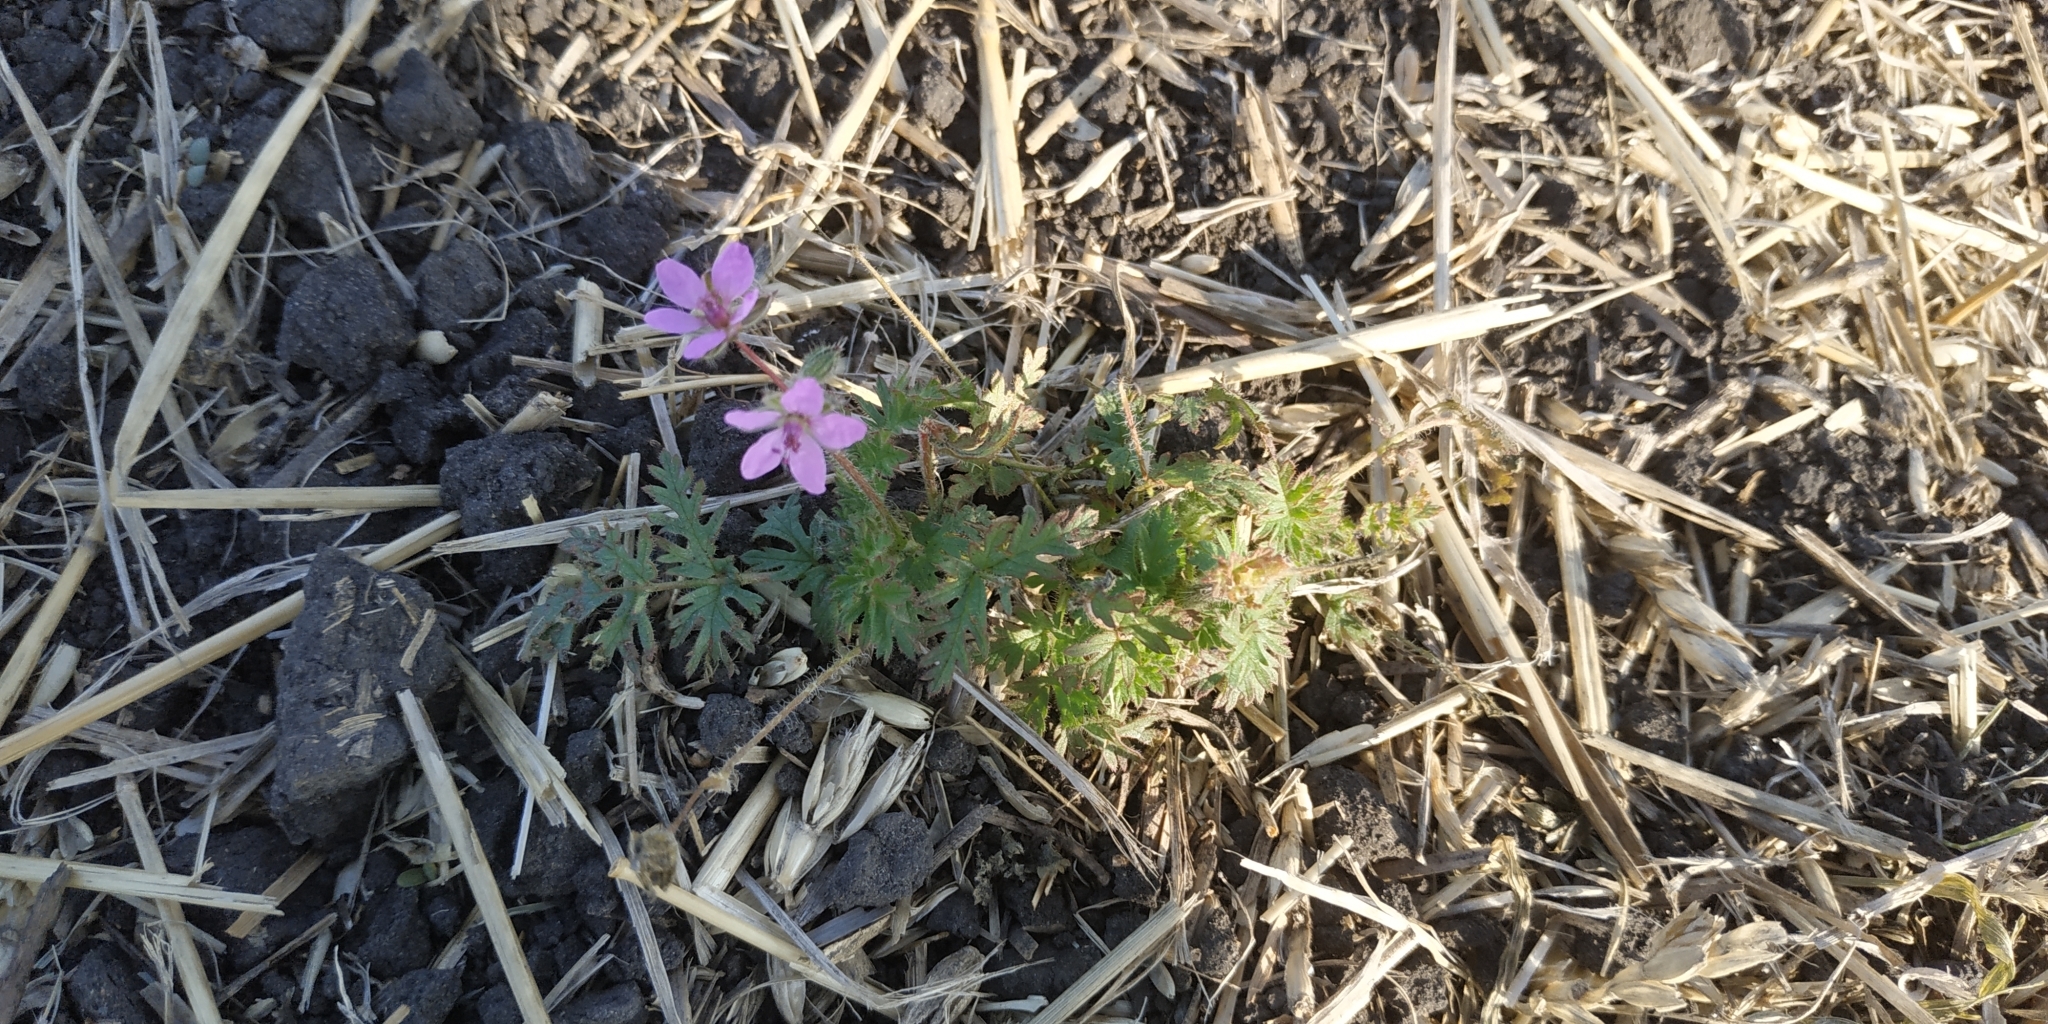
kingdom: Plantae
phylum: Tracheophyta
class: Magnoliopsida
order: Geraniales
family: Geraniaceae
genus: Erodium
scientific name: Erodium cicutarium
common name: Common stork's-bill
